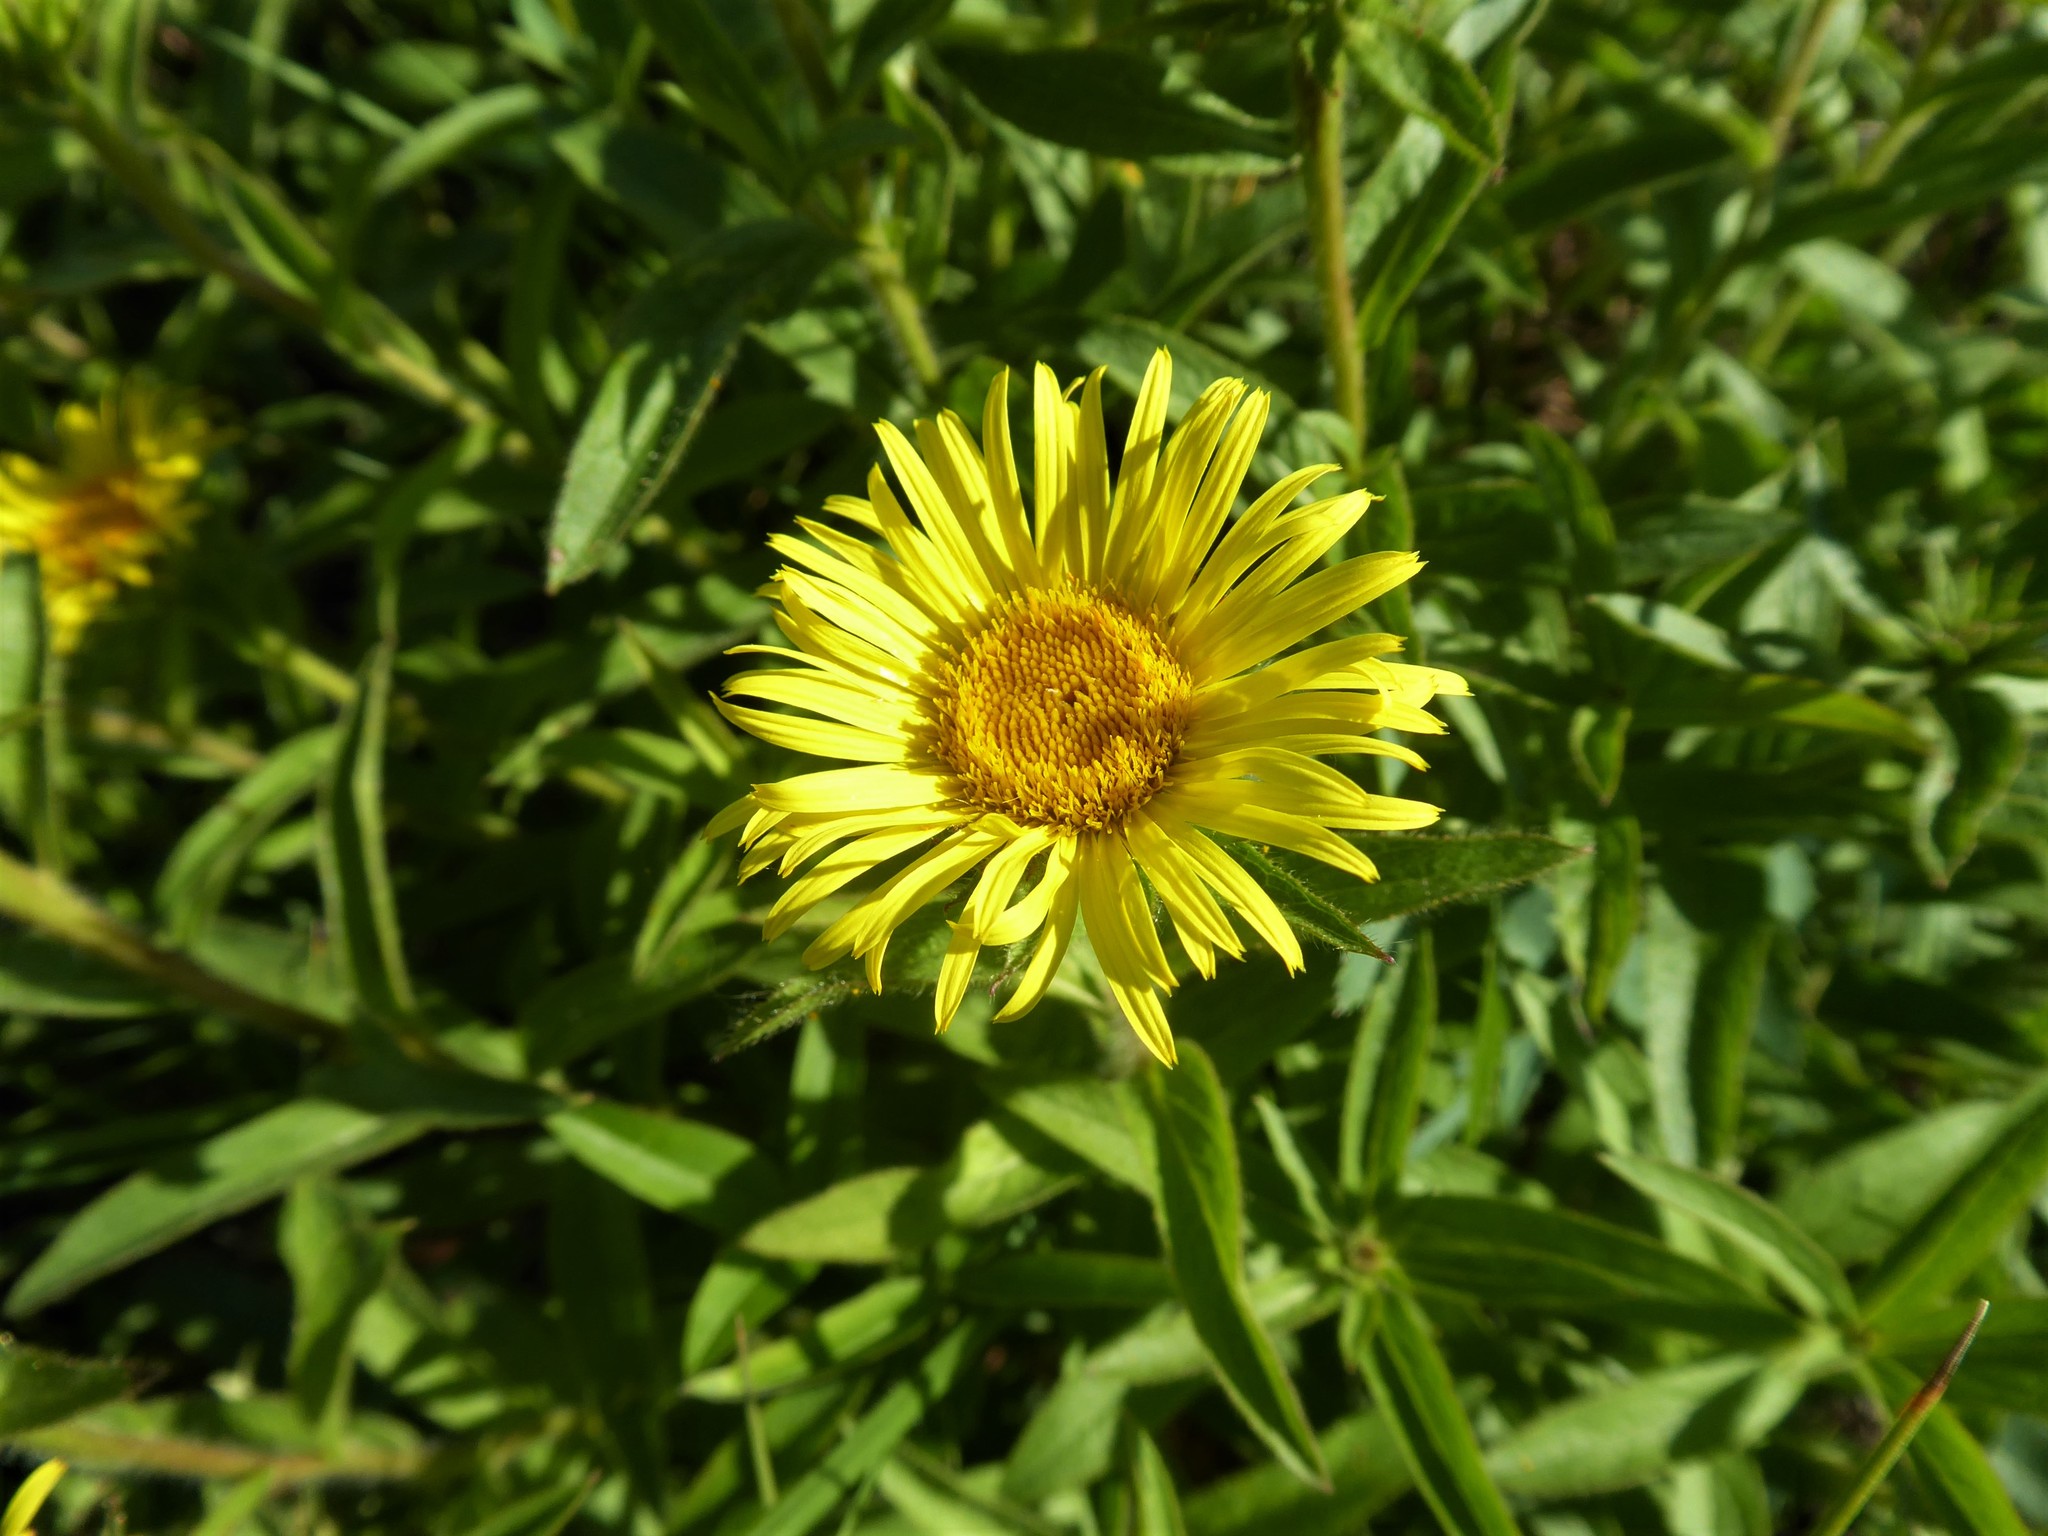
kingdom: Plantae
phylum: Tracheophyta
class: Magnoliopsida
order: Asterales
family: Asteraceae
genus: Pentanema
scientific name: Pentanema hirtum
